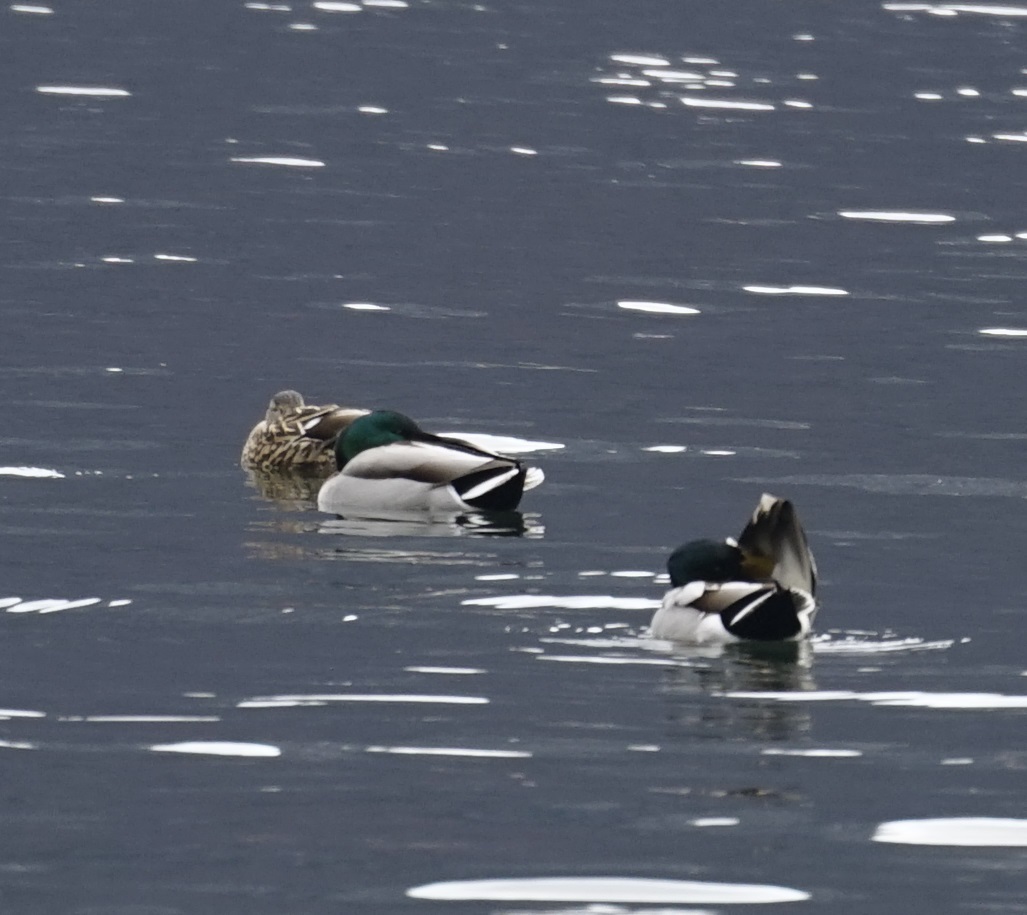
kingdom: Animalia
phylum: Chordata
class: Aves
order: Anseriformes
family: Anatidae
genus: Anas
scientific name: Anas platyrhynchos
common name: Mallard
